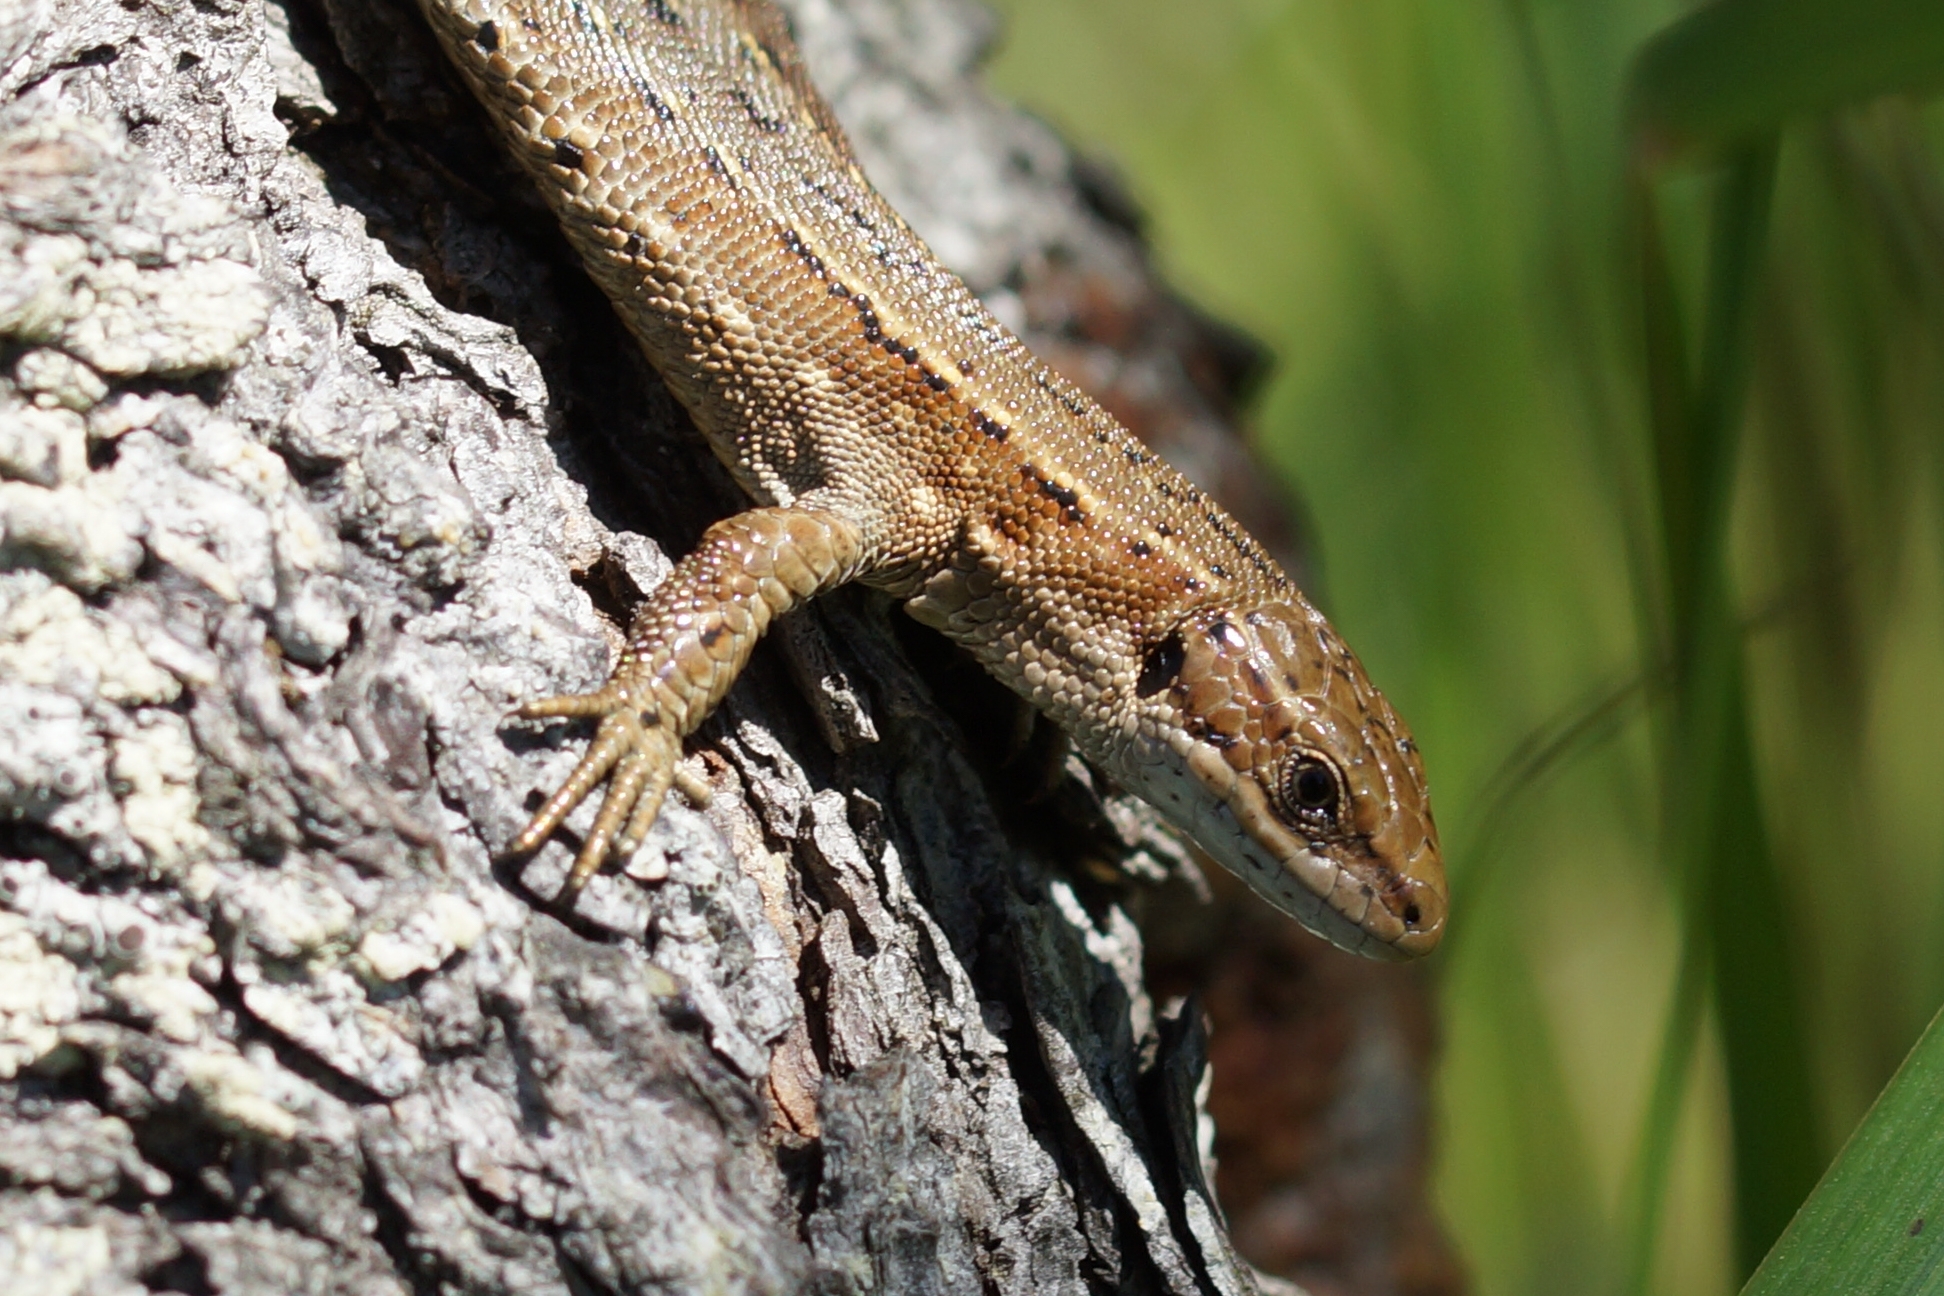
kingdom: Animalia
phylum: Chordata
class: Squamata
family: Lacertidae
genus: Zootoca
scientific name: Zootoca vivipara
